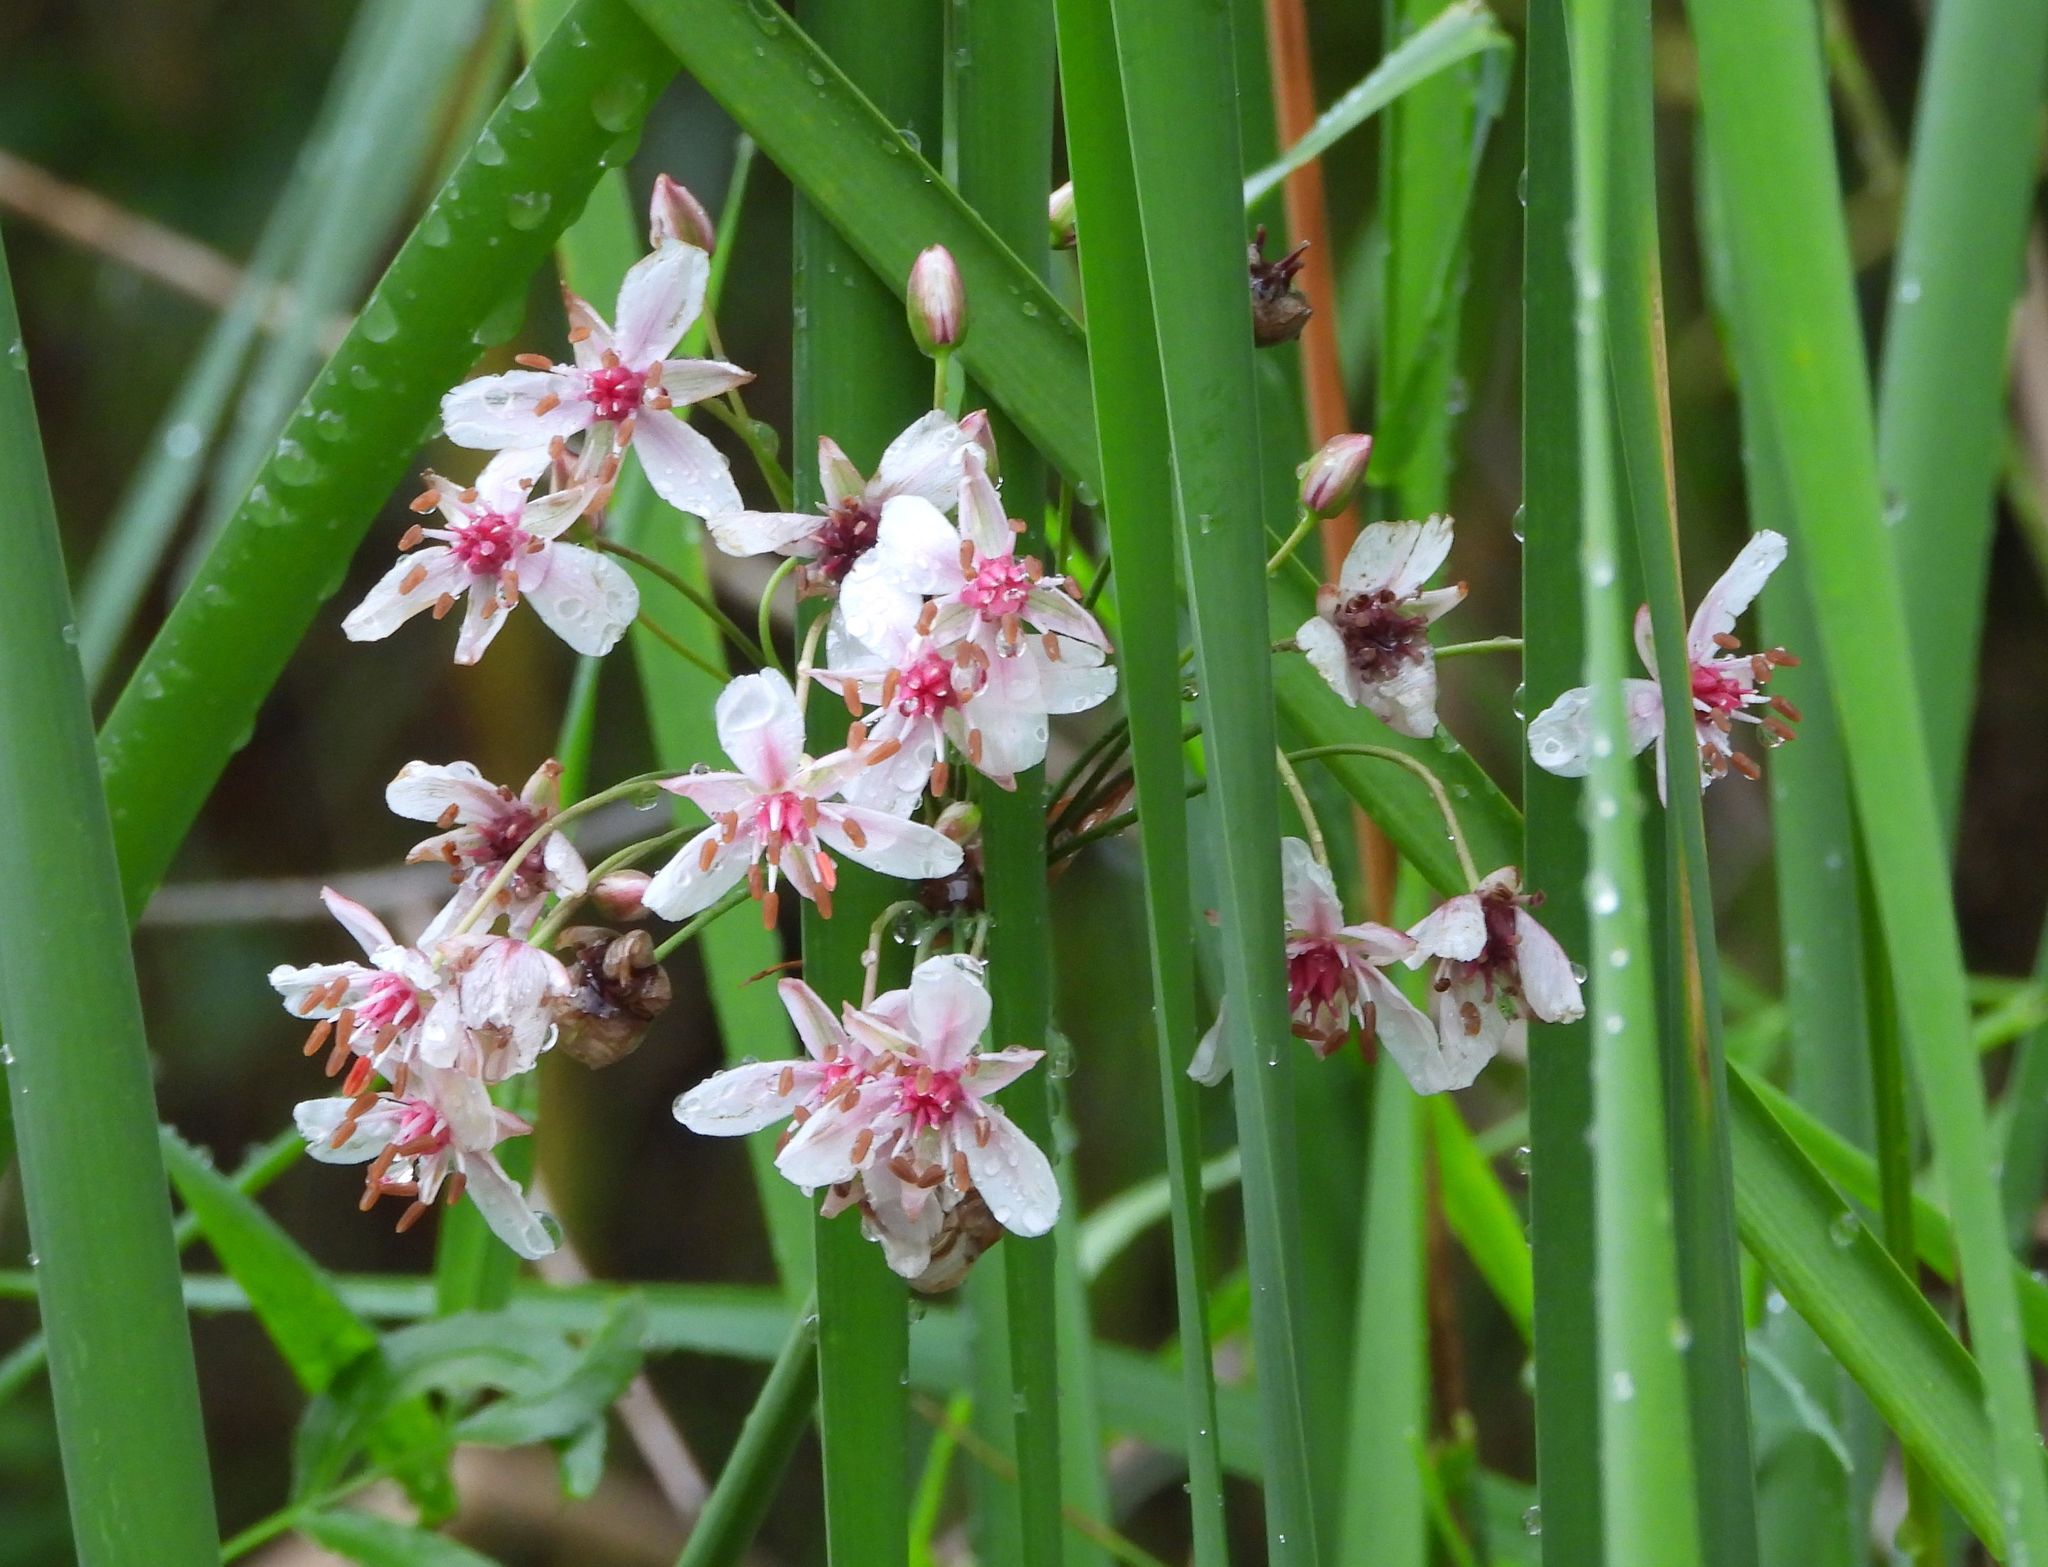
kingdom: Plantae
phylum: Tracheophyta
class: Liliopsida
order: Alismatales
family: Butomaceae
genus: Butomus
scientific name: Butomus umbellatus
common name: Flowering-rush
